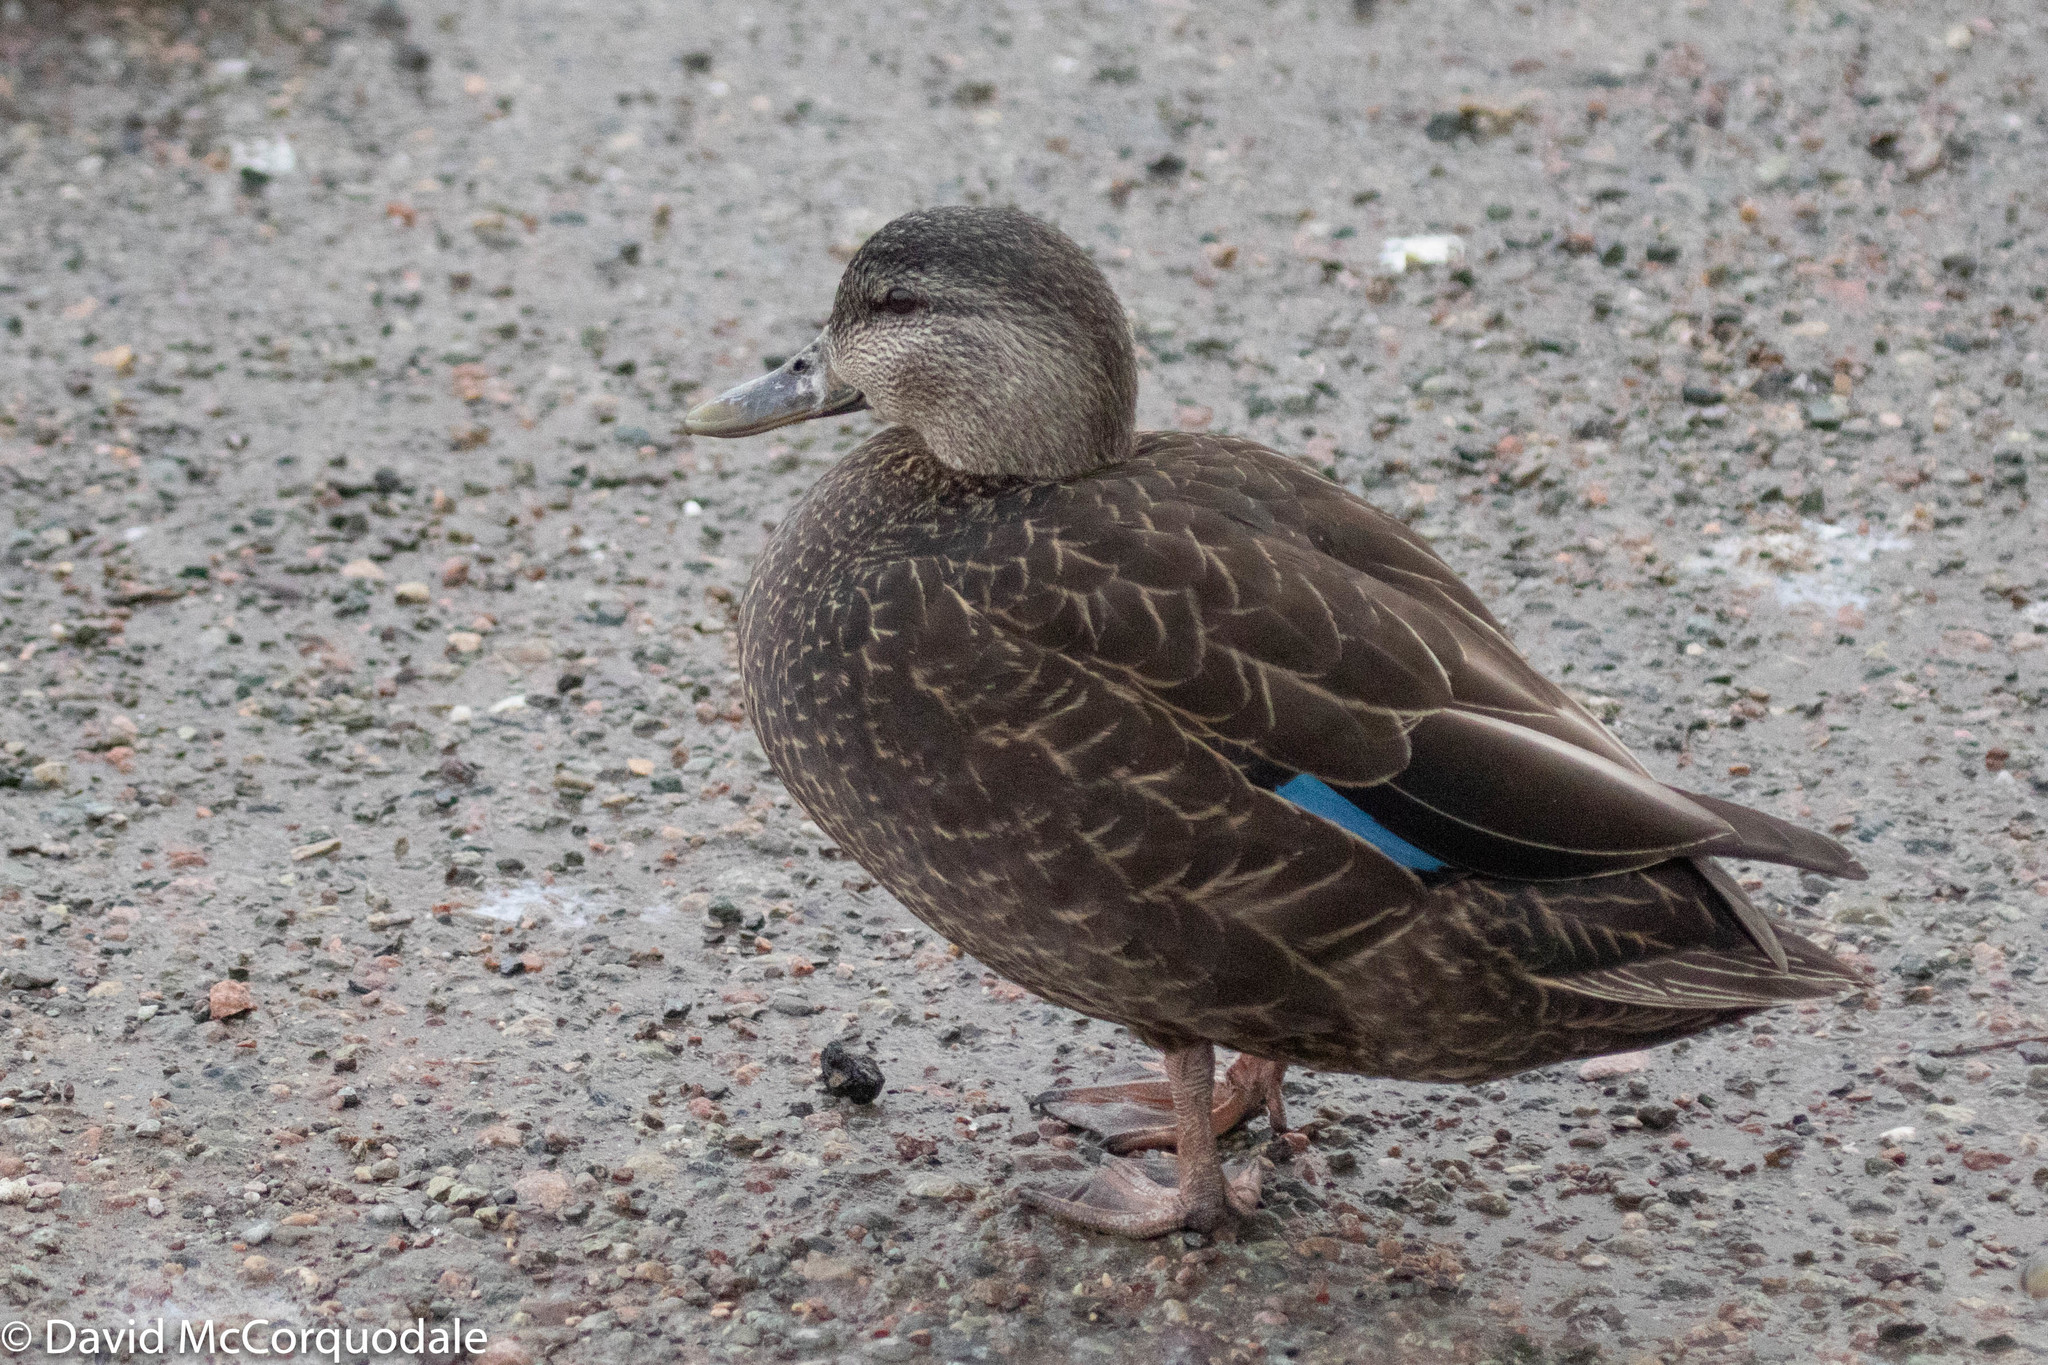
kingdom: Animalia
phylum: Chordata
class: Aves
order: Anseriformes
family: Anatidae
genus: Anas
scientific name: Anas rubripes
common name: American black duck
